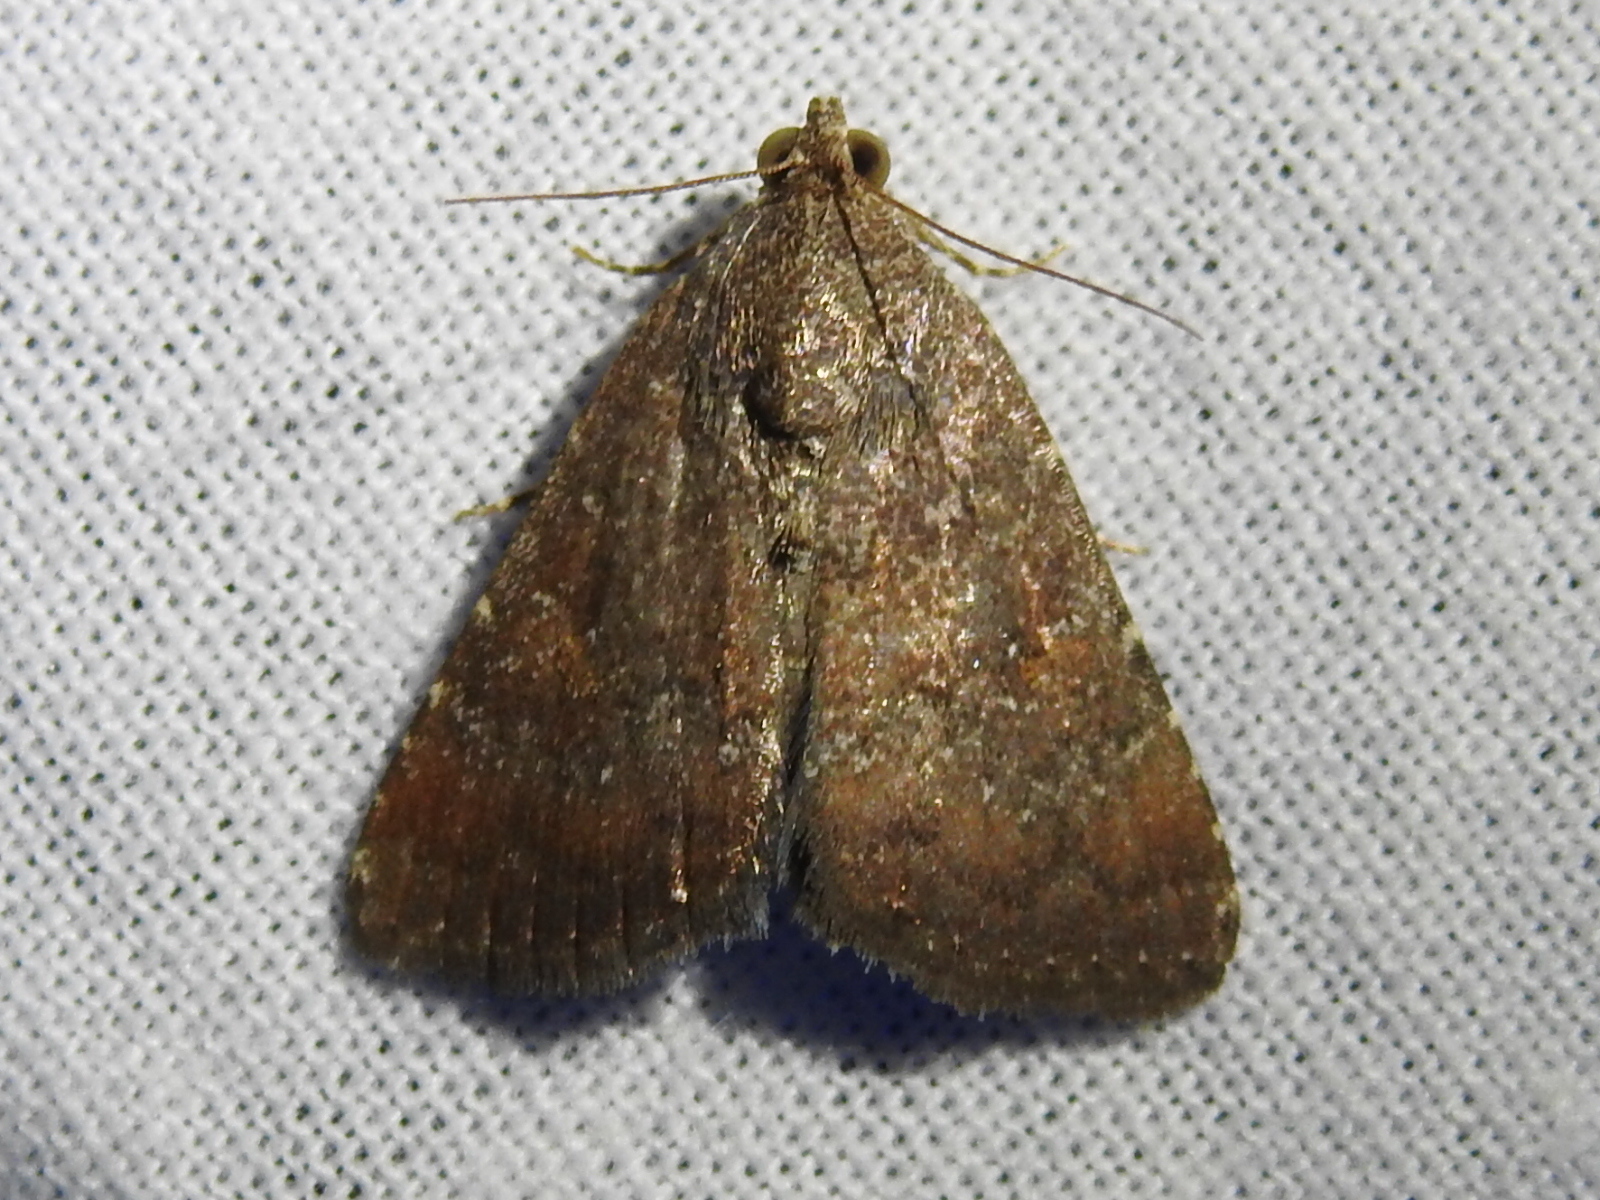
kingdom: Animalia
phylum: Arthropoda
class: Insecta
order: Lepidoptera
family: Noctuidae
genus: Amyna
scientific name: Amyna stricta
